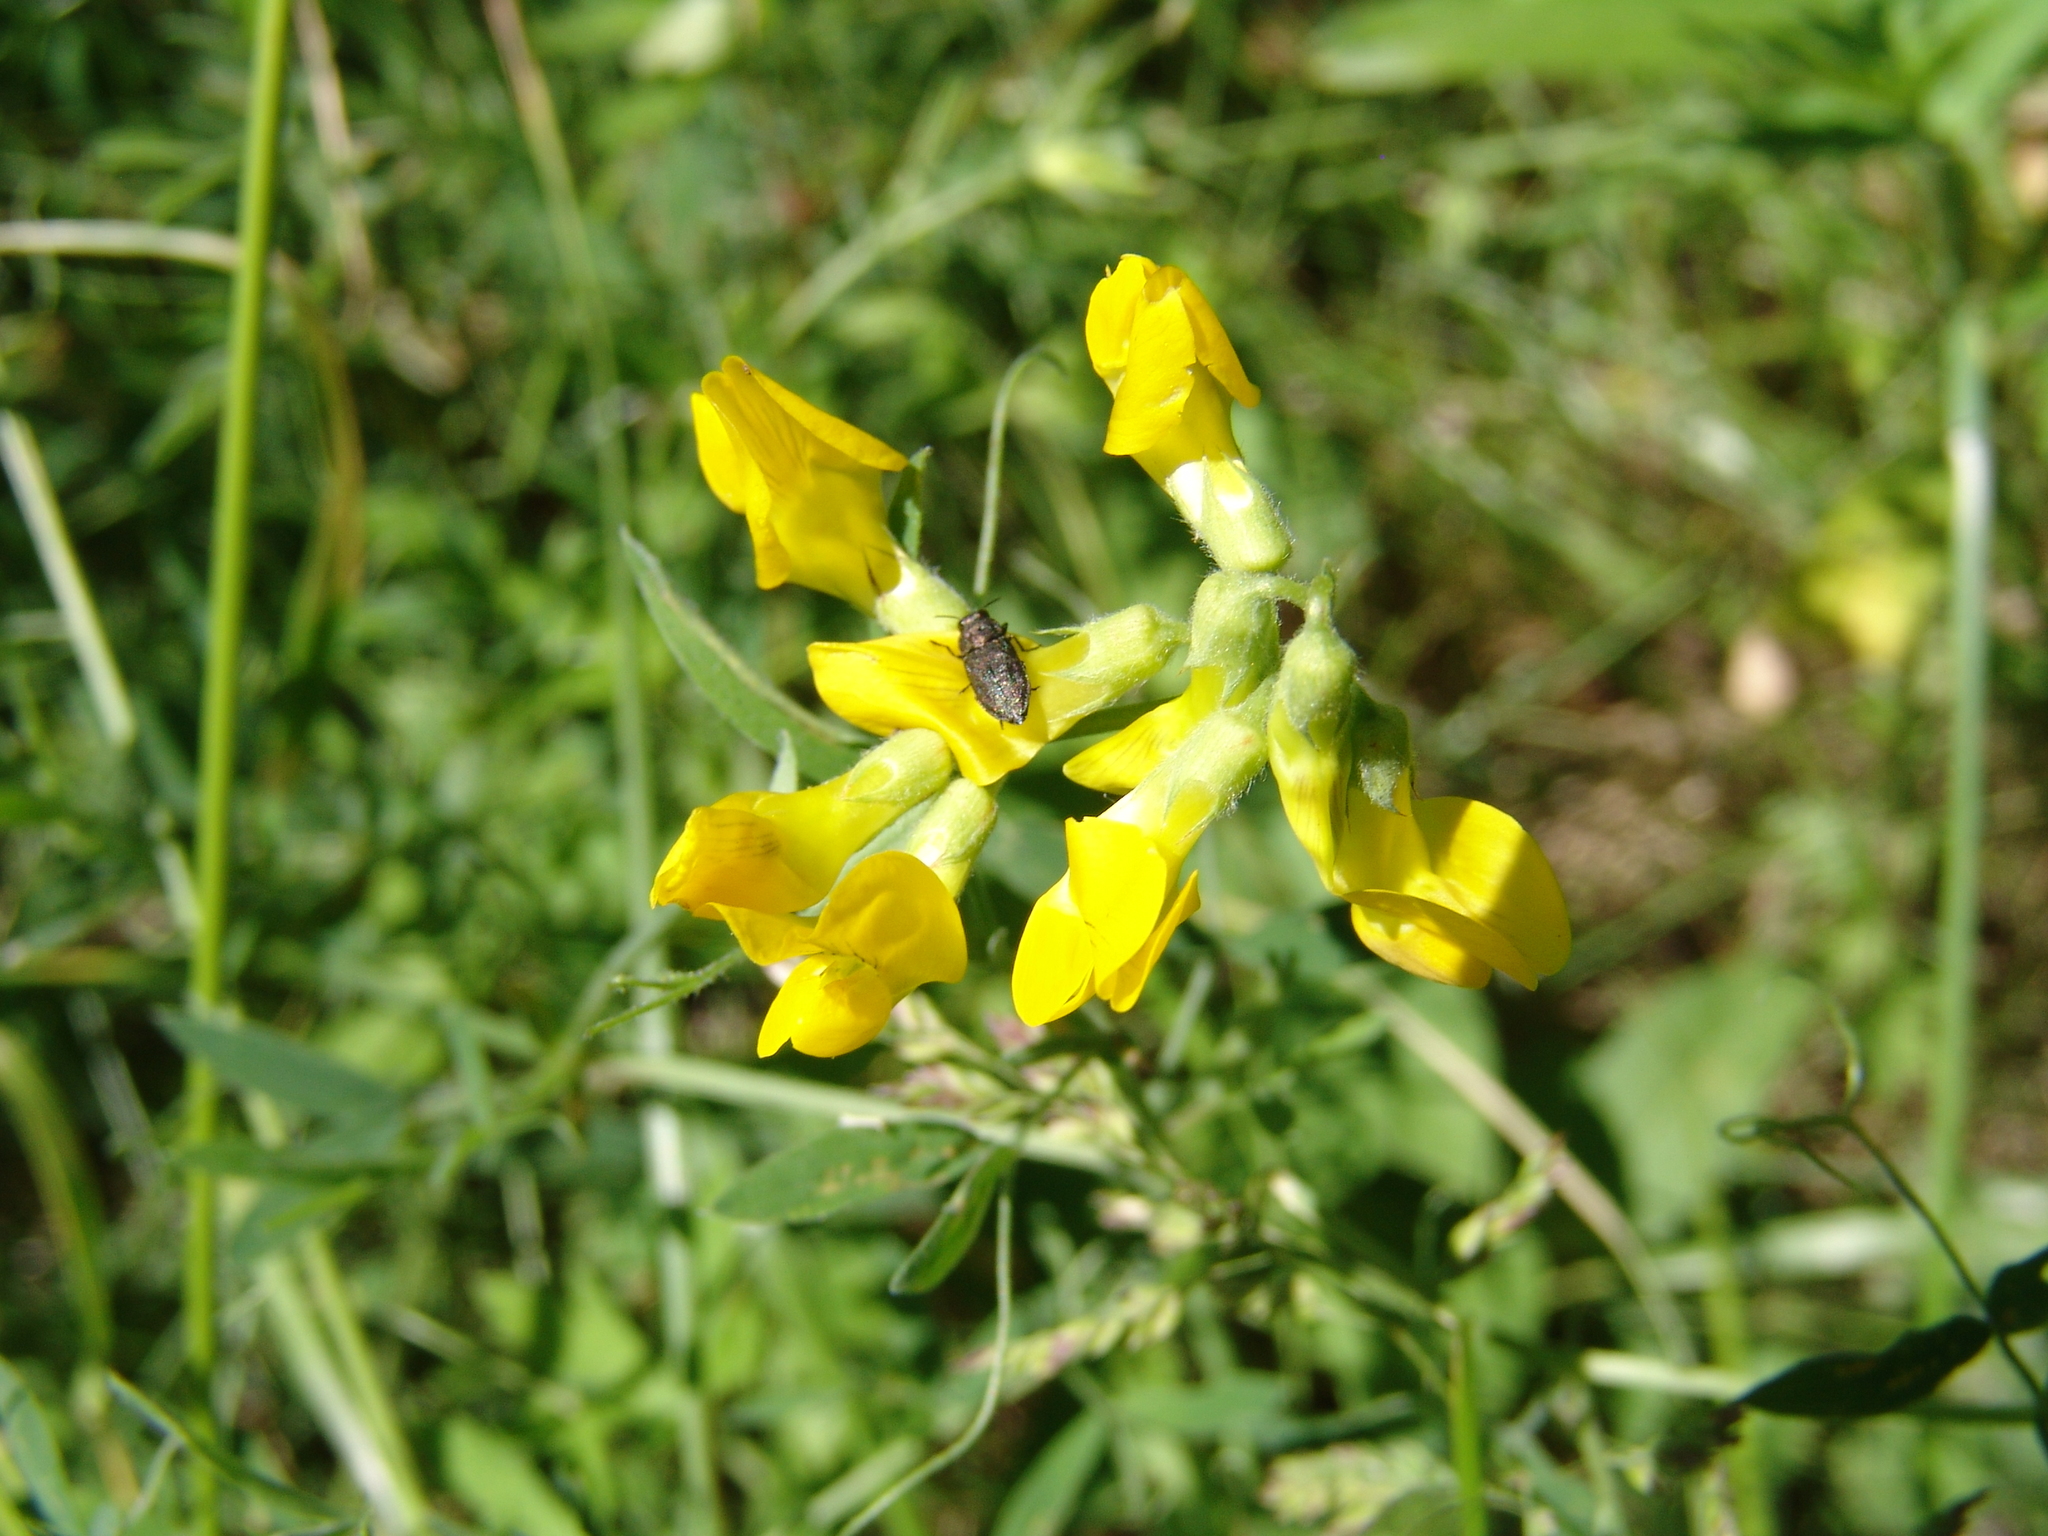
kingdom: Plantae
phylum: Tracheophyta
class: Magnoliopsida
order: Fabales
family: Fabaceae
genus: Lathyrus
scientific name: Lathyrus pratensis
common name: Meadow vetchling
